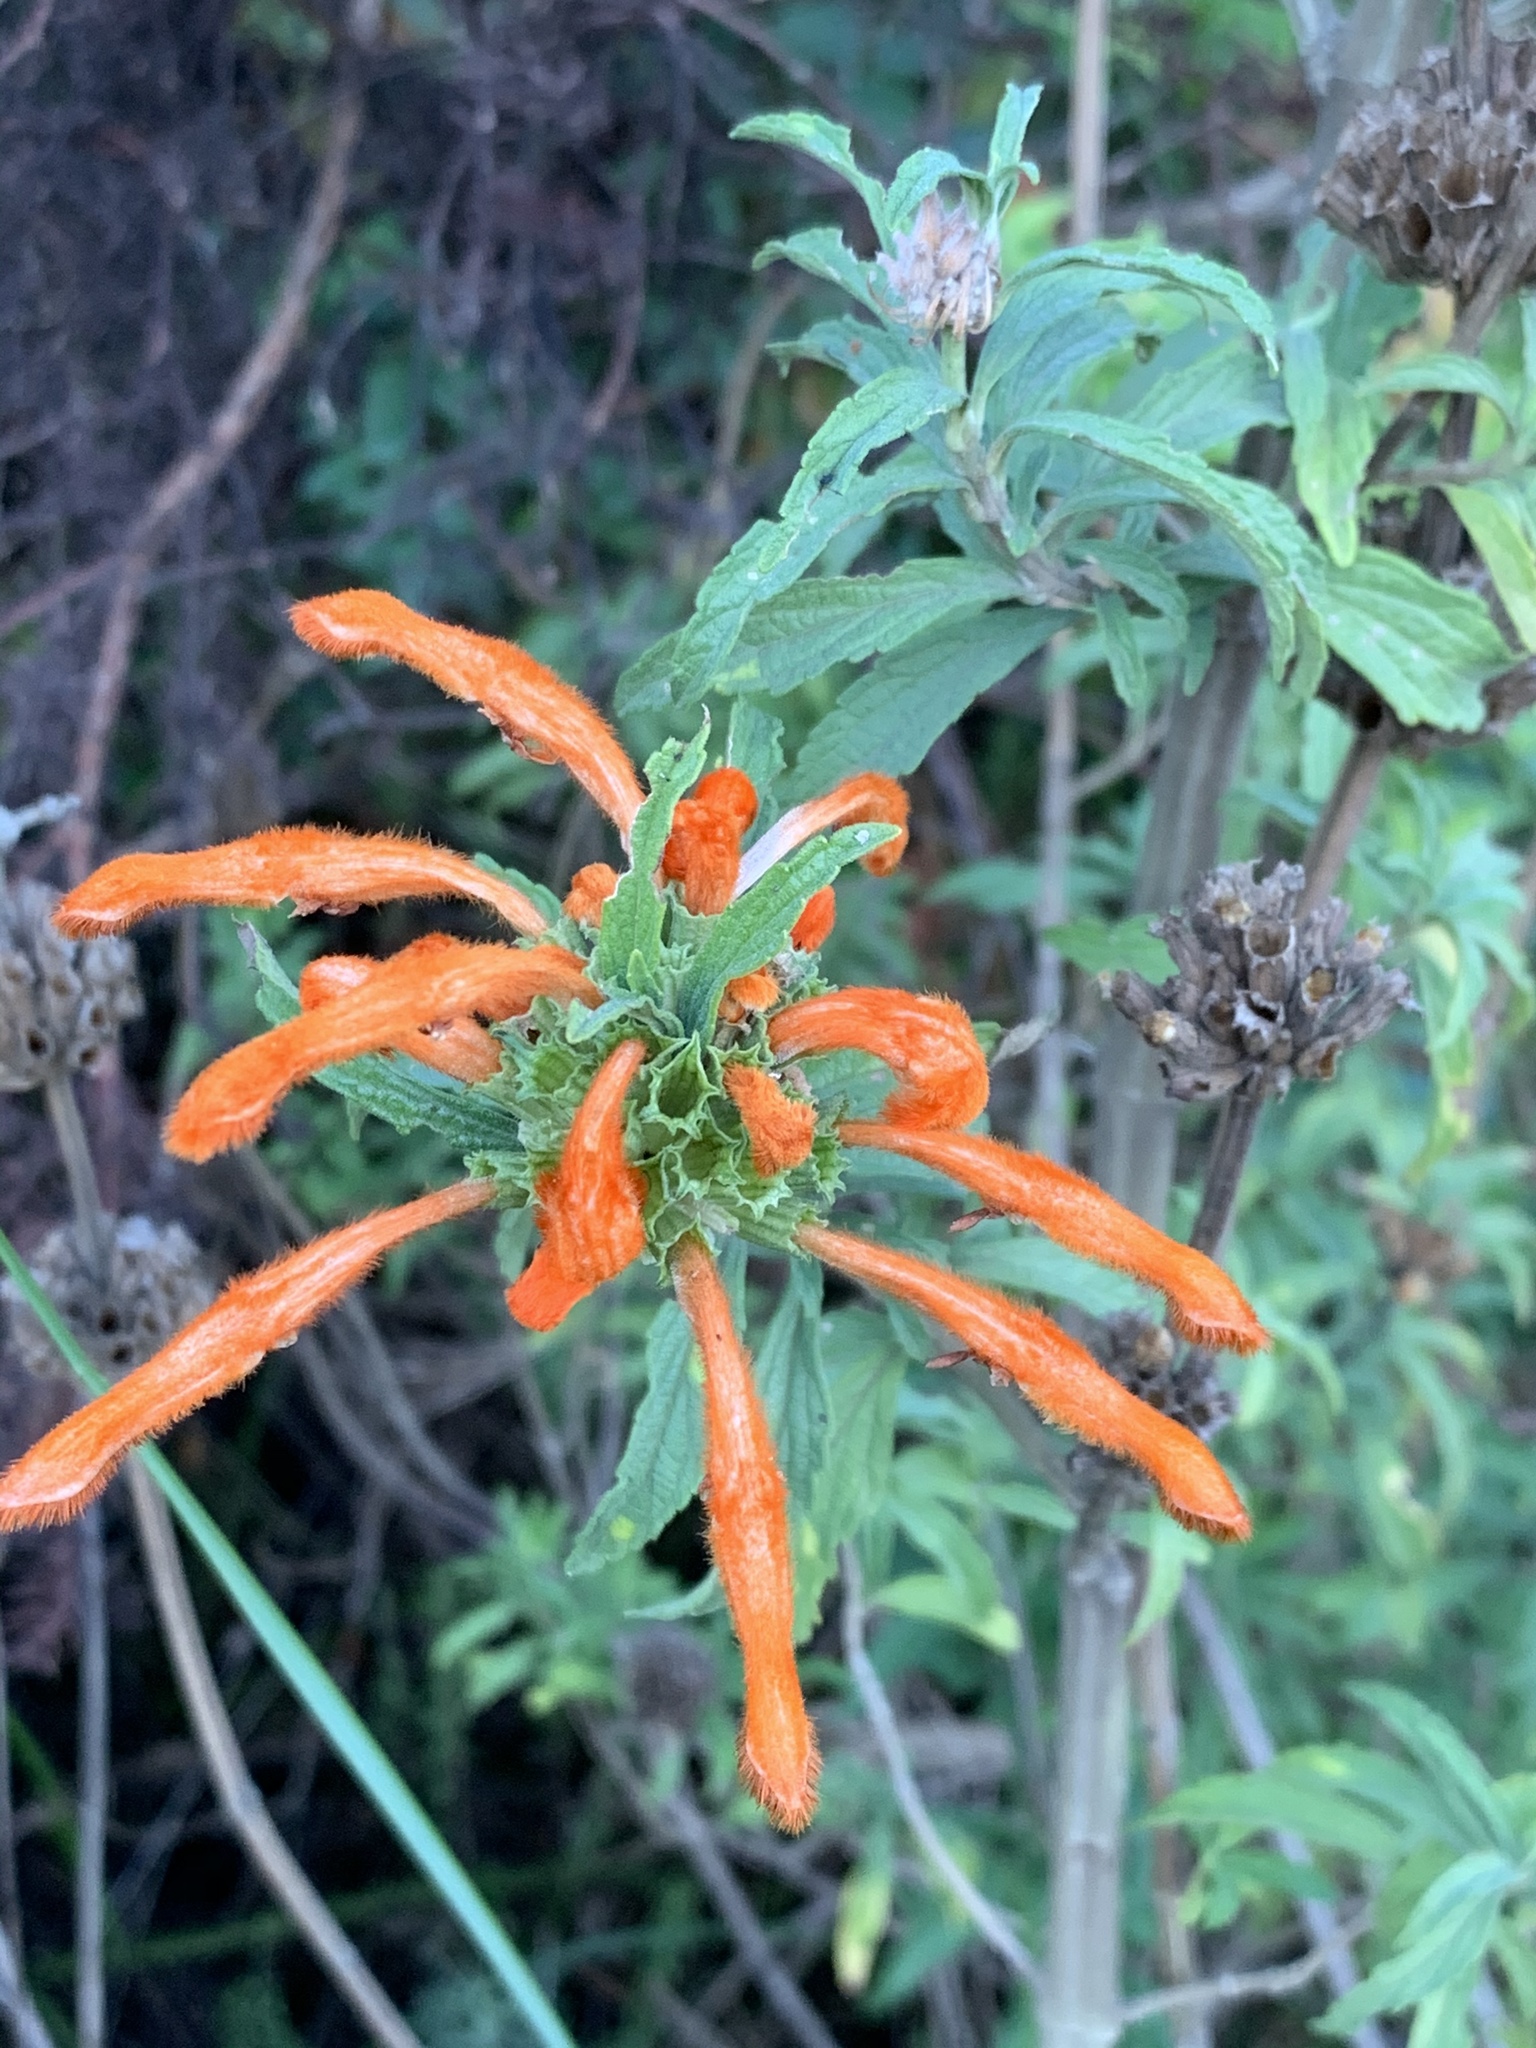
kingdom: Plantae
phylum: Tracheophyta
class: Magnoliopsida
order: Lamiales
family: Lamiaceae
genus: Leonotis
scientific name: Leonotis leonurus
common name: Lion's ear
